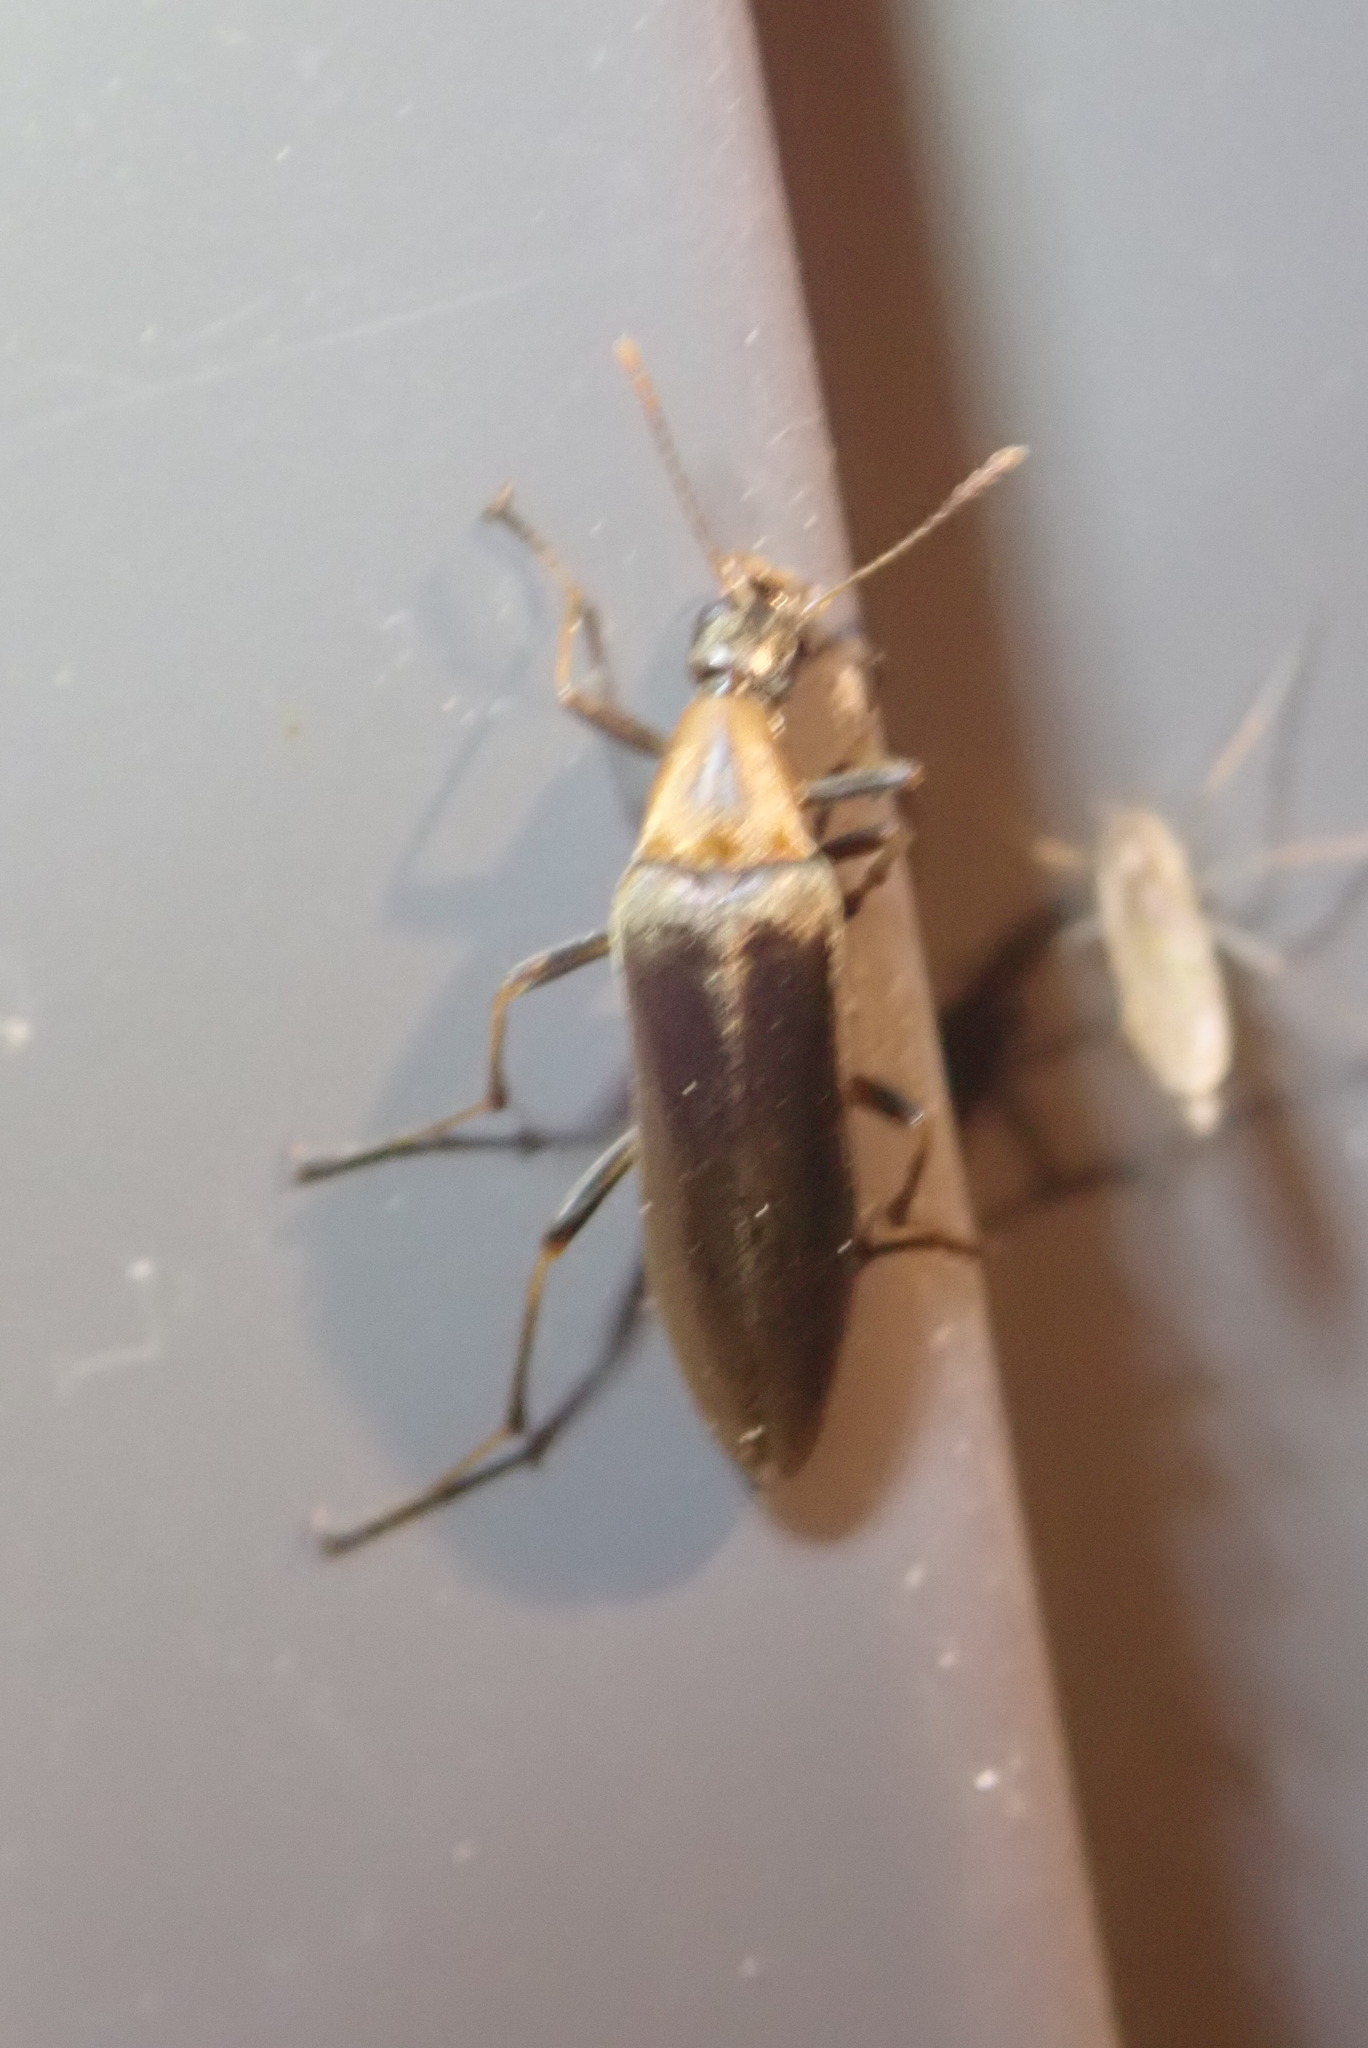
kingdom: Animalia
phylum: Arthropoda
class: Insecta
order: Coleoptera
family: Stenotrachelidae
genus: Cephaloon
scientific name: Cephaloon lepturides
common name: False leptura beetle
